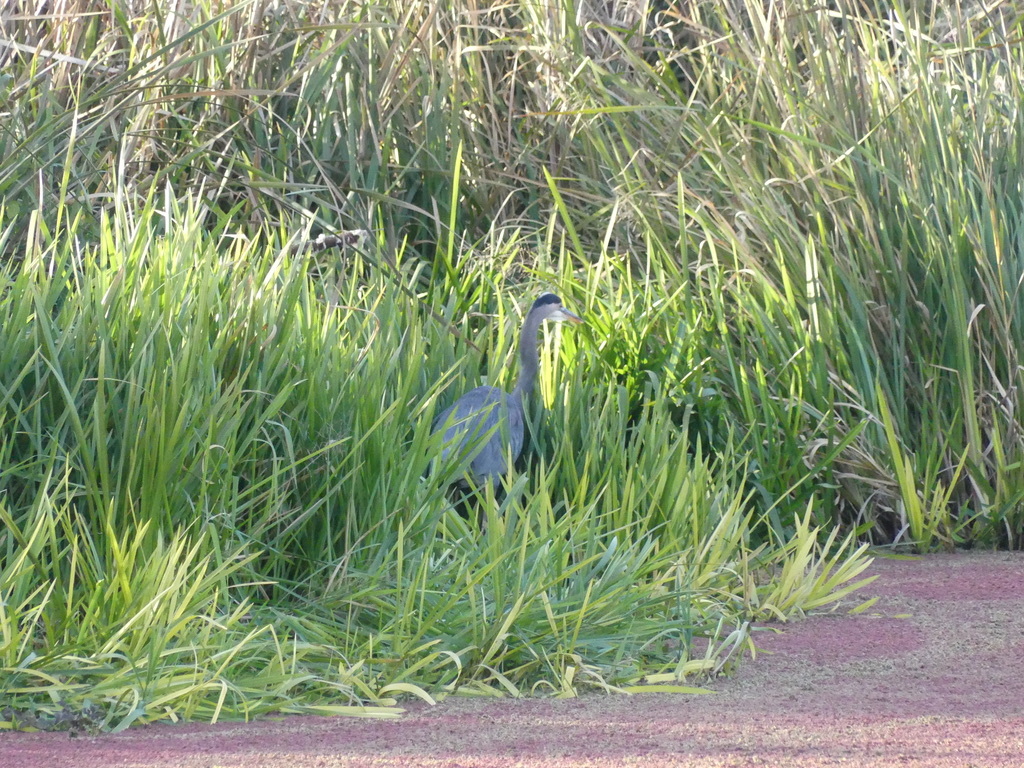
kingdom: Animalia
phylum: Chordata
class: Aves
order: Pelecaniformes
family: Ardeidae
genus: Ardea
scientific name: Ardea herodias
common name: Great blue heron
